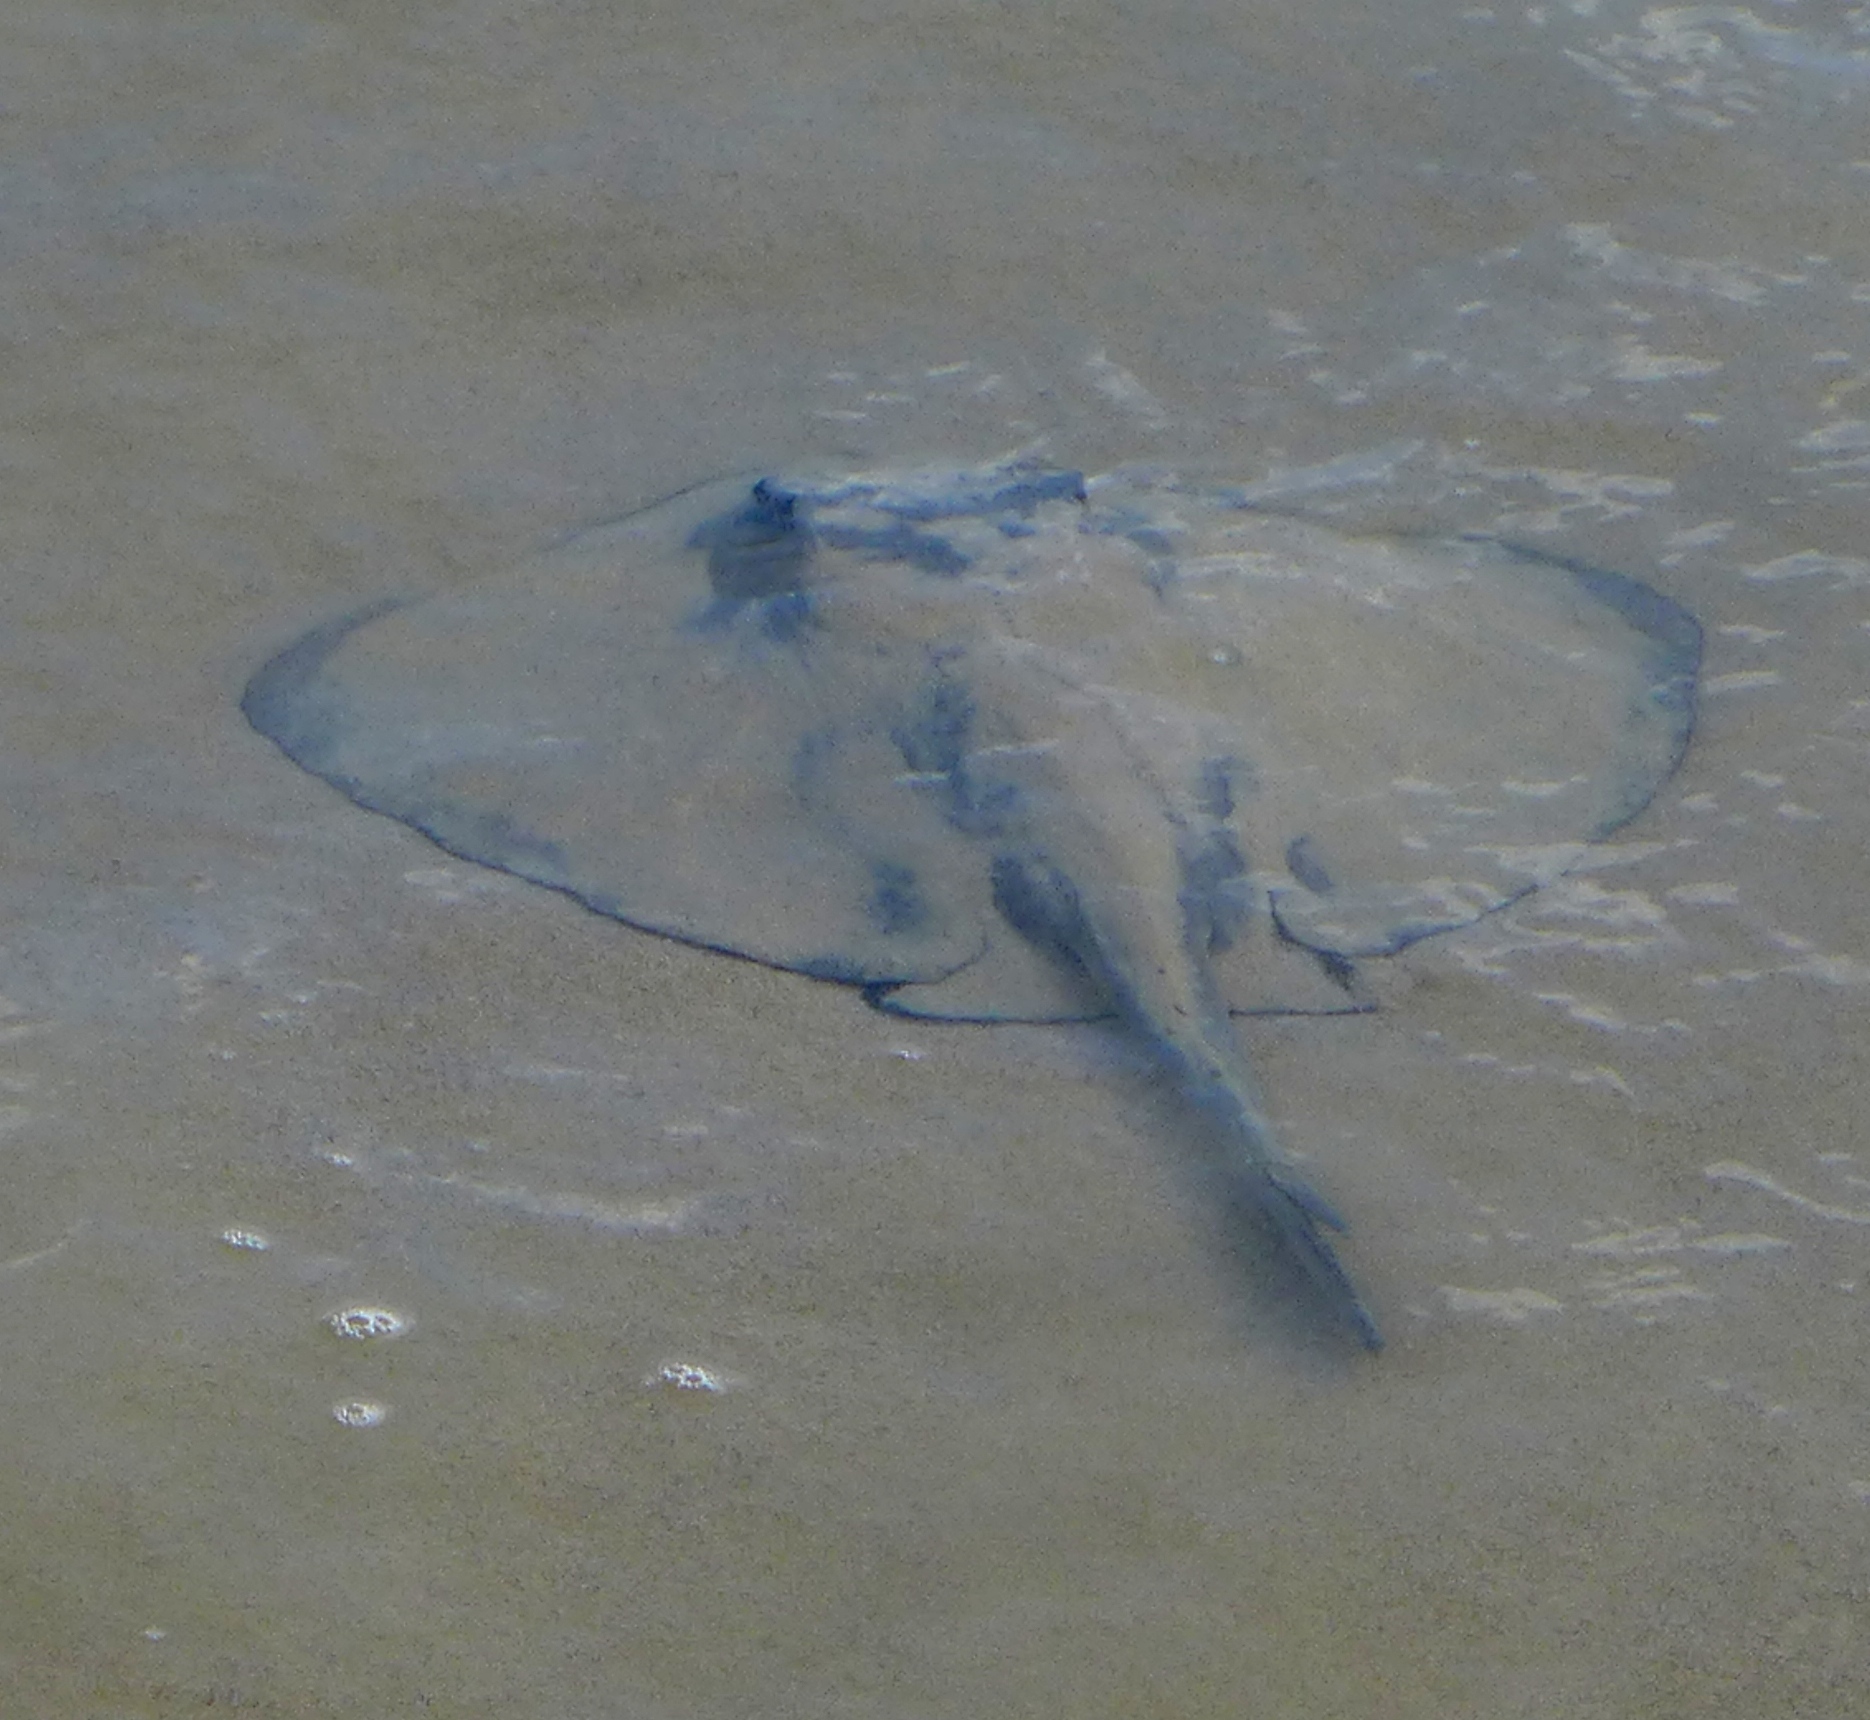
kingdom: Animalia
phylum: Chordata
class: Elasmobranchii
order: Myliobatiformes
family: Dasyatidae
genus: Hypanus
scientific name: Hypanus dipterurus
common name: Diamond stingray
